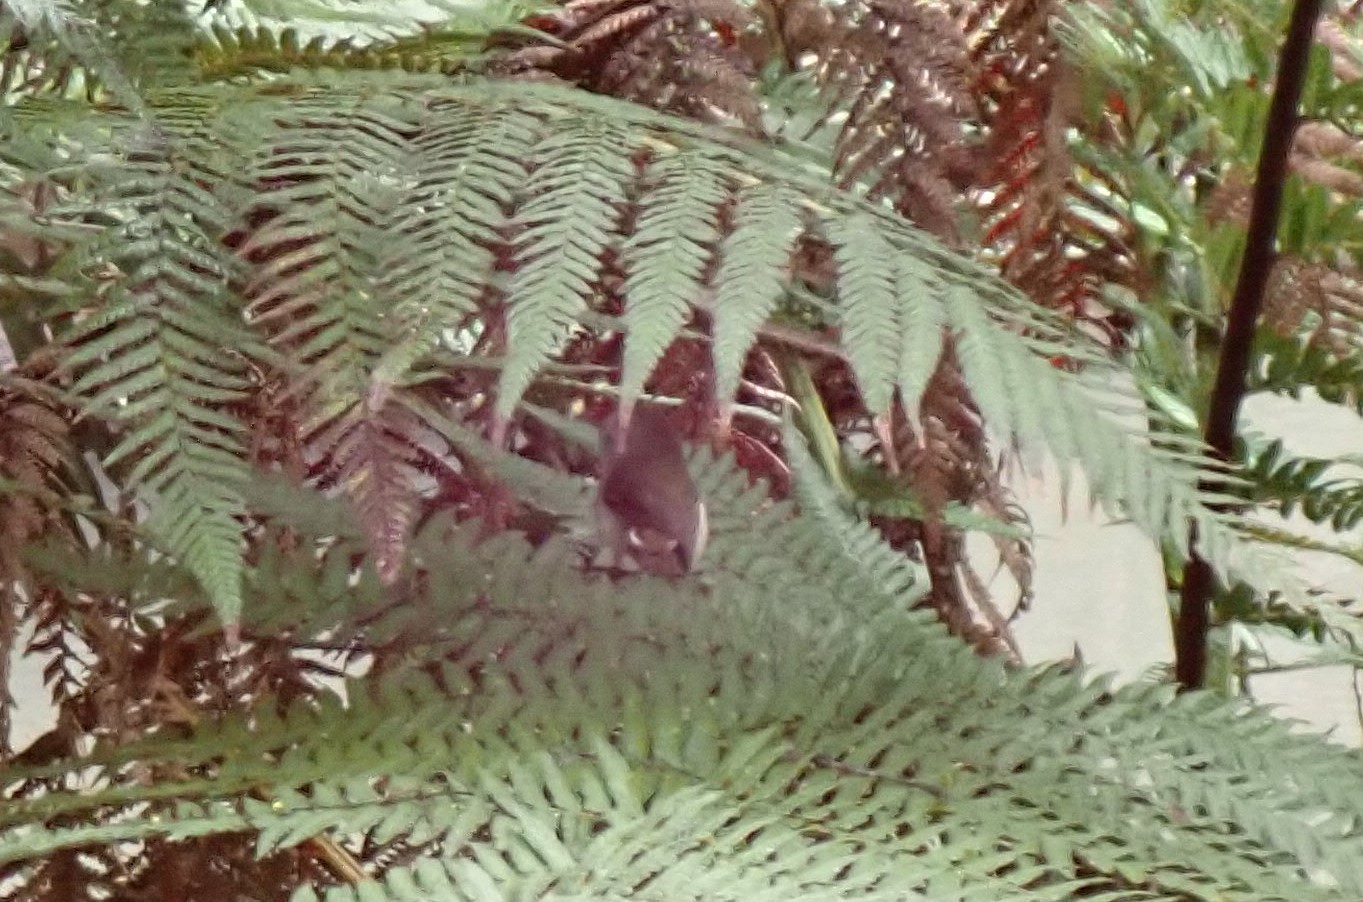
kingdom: Animalia
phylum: Chordata
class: Aves
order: Passeriformes
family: Acanthizidae
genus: Acanthiza
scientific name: Acanthiza ewingii
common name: Tasmanian thornbill
